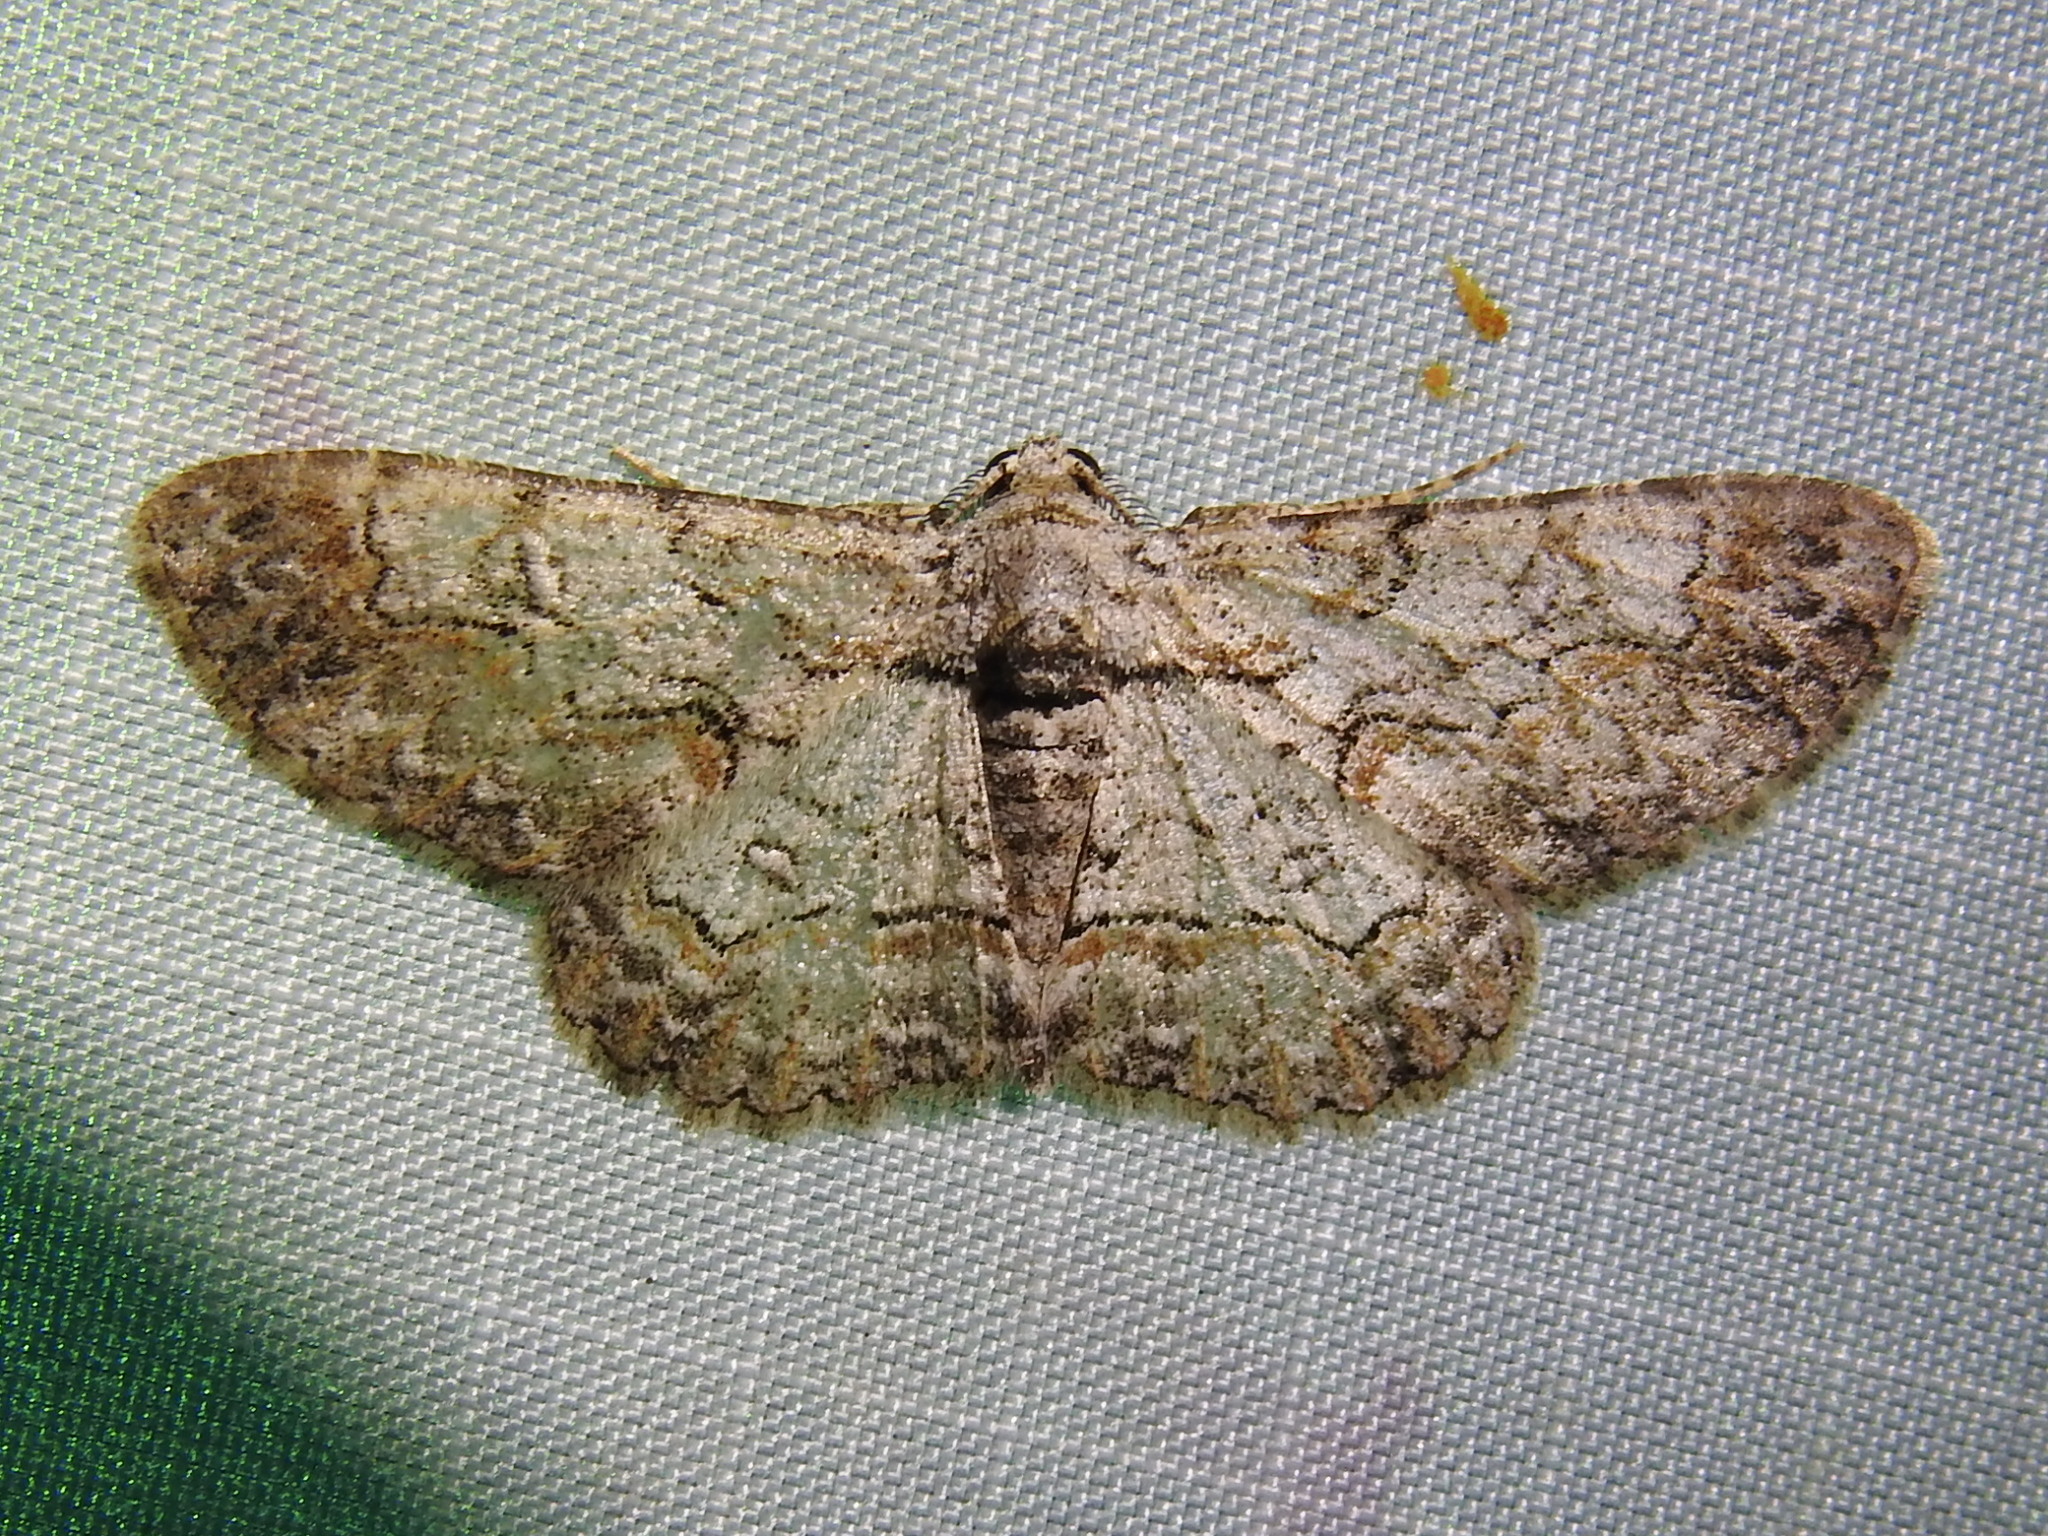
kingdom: Animalia
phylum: Arthropoda
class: Insecta
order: Lepidoptera
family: Geometridae
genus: Iridopsis
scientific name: Iridopsis defectaria
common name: Brown-shaded gray
